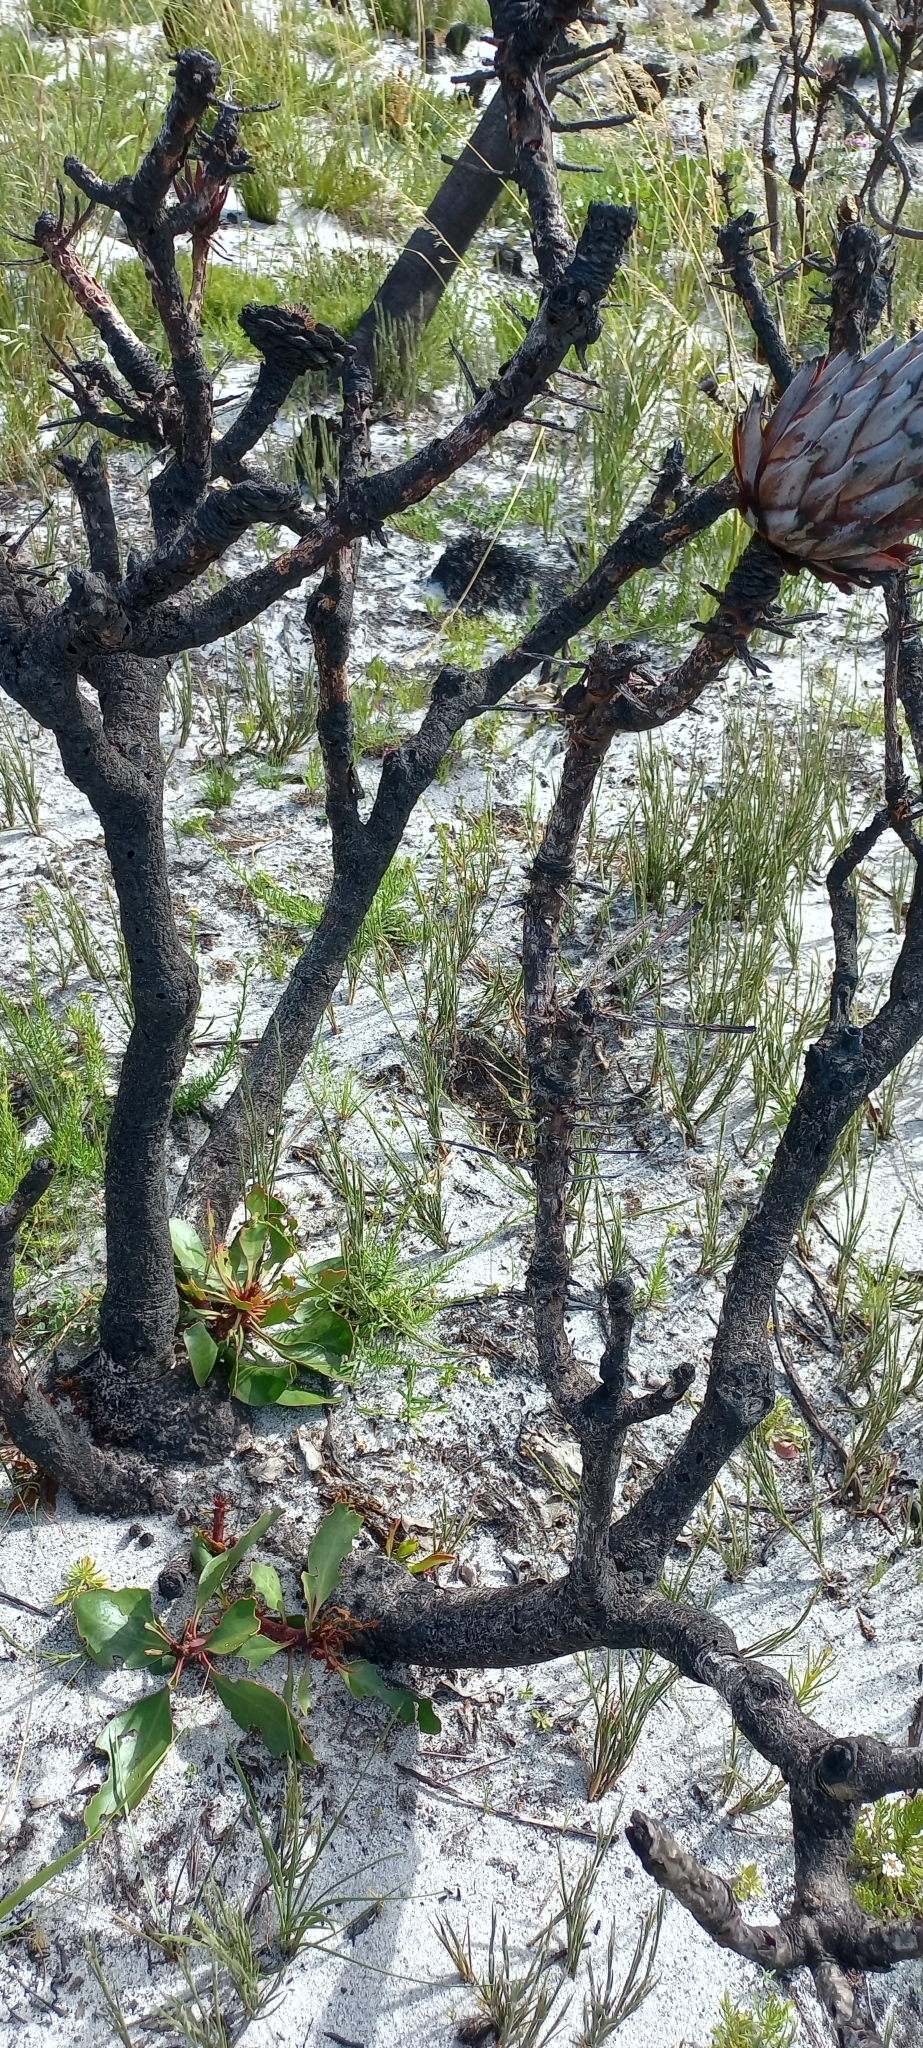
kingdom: Plantae
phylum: Tracheophyta
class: Magnoliopsida
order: Proteales
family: Proteaceae
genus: Protea
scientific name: Protea cynaroides
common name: King protea
